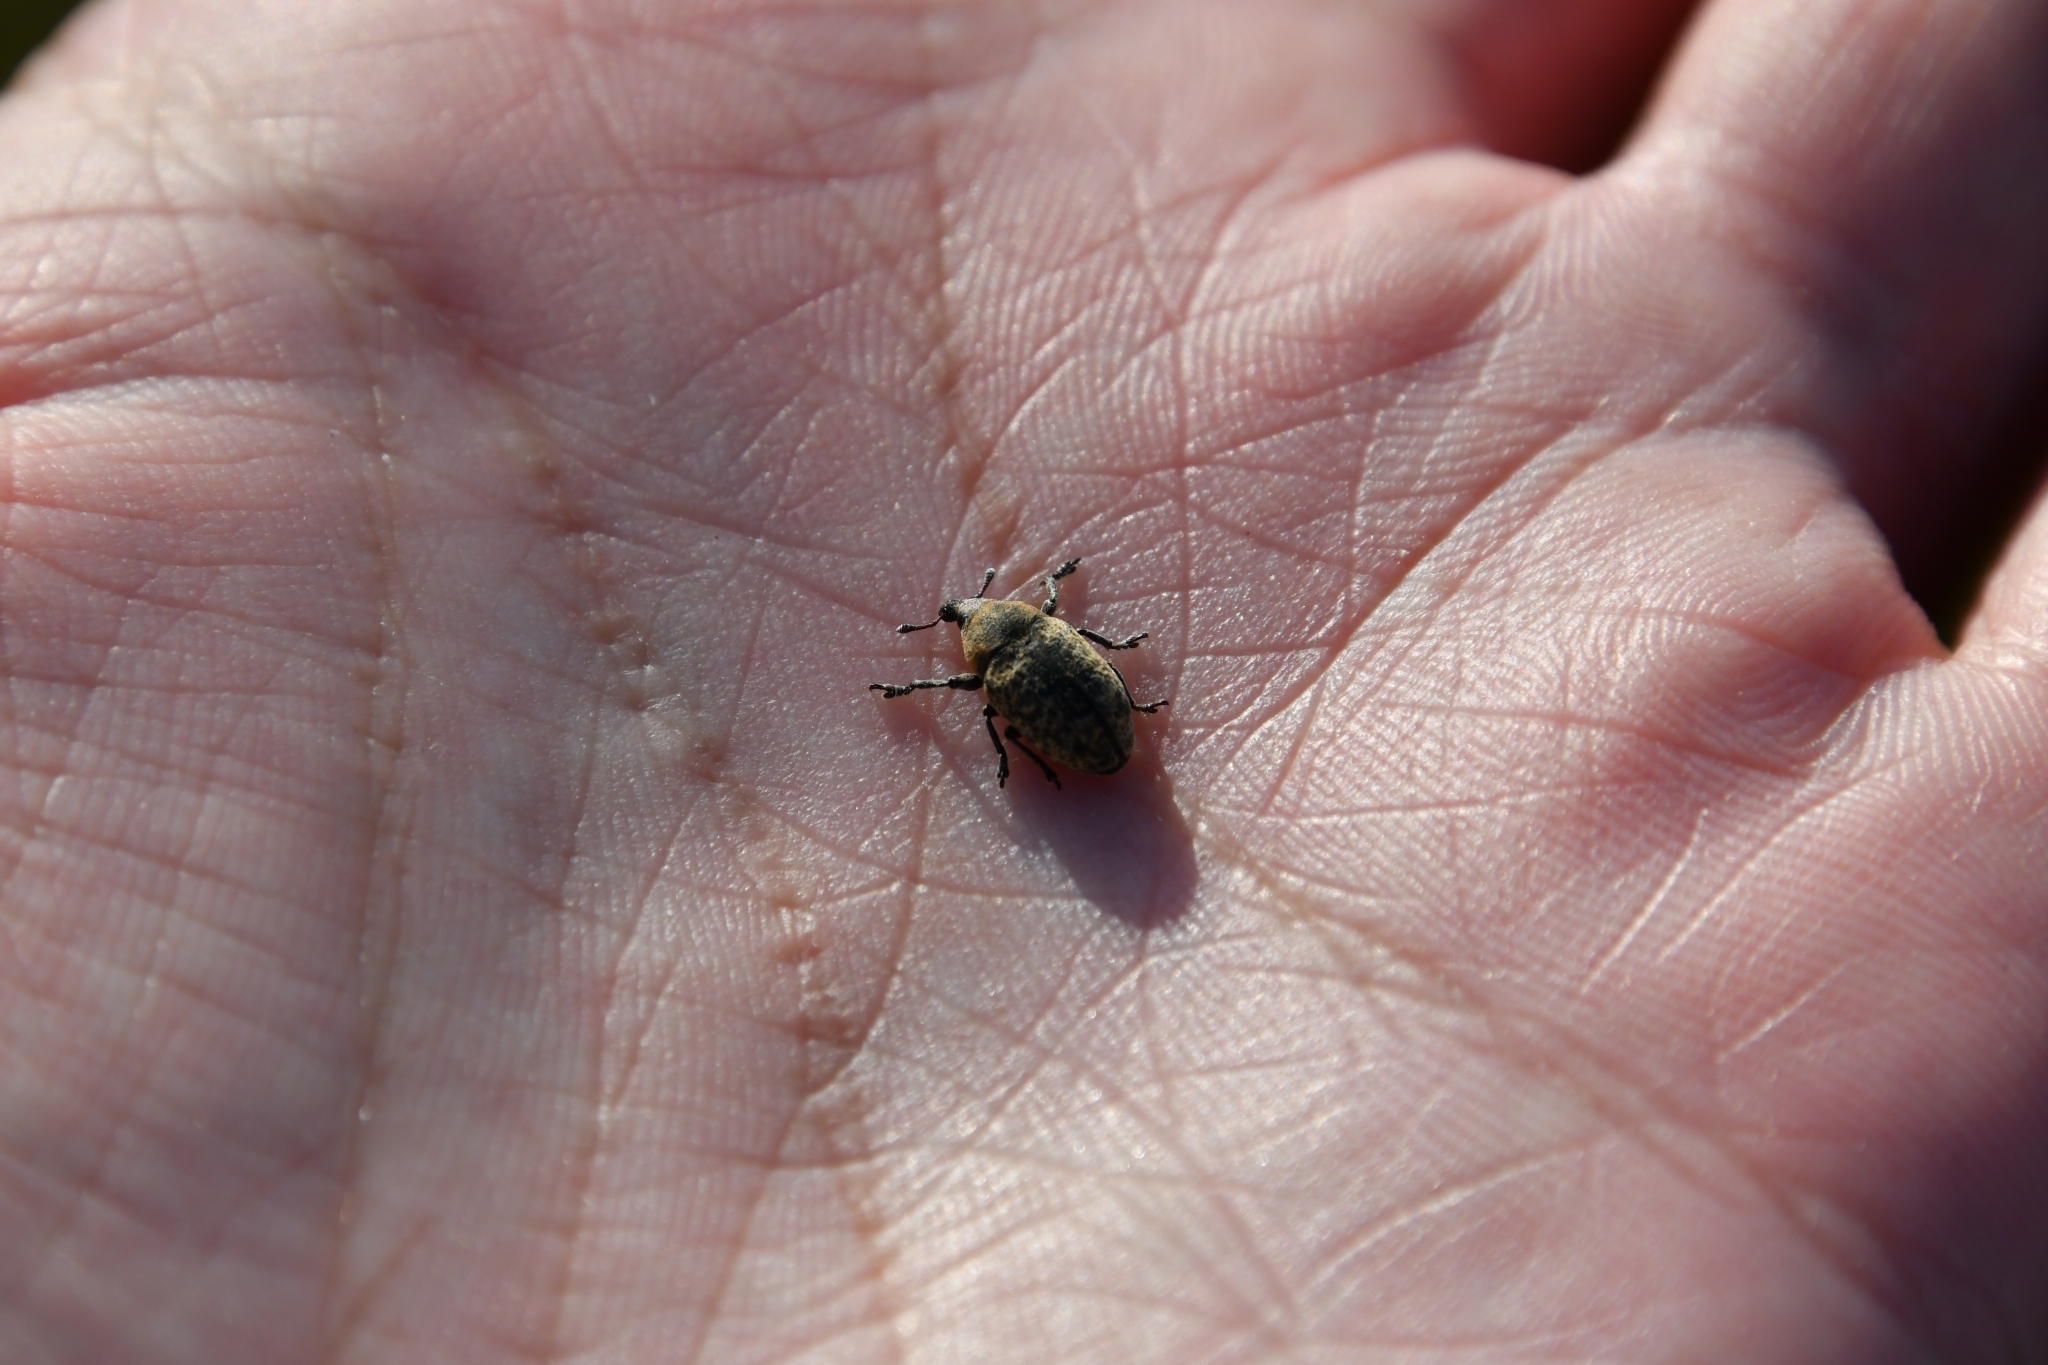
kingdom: Animalia
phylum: Arthropoda
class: Insecta
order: Coleoptera
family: Curculionidae
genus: Larinus
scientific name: Larinus obtusus
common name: Weevil
